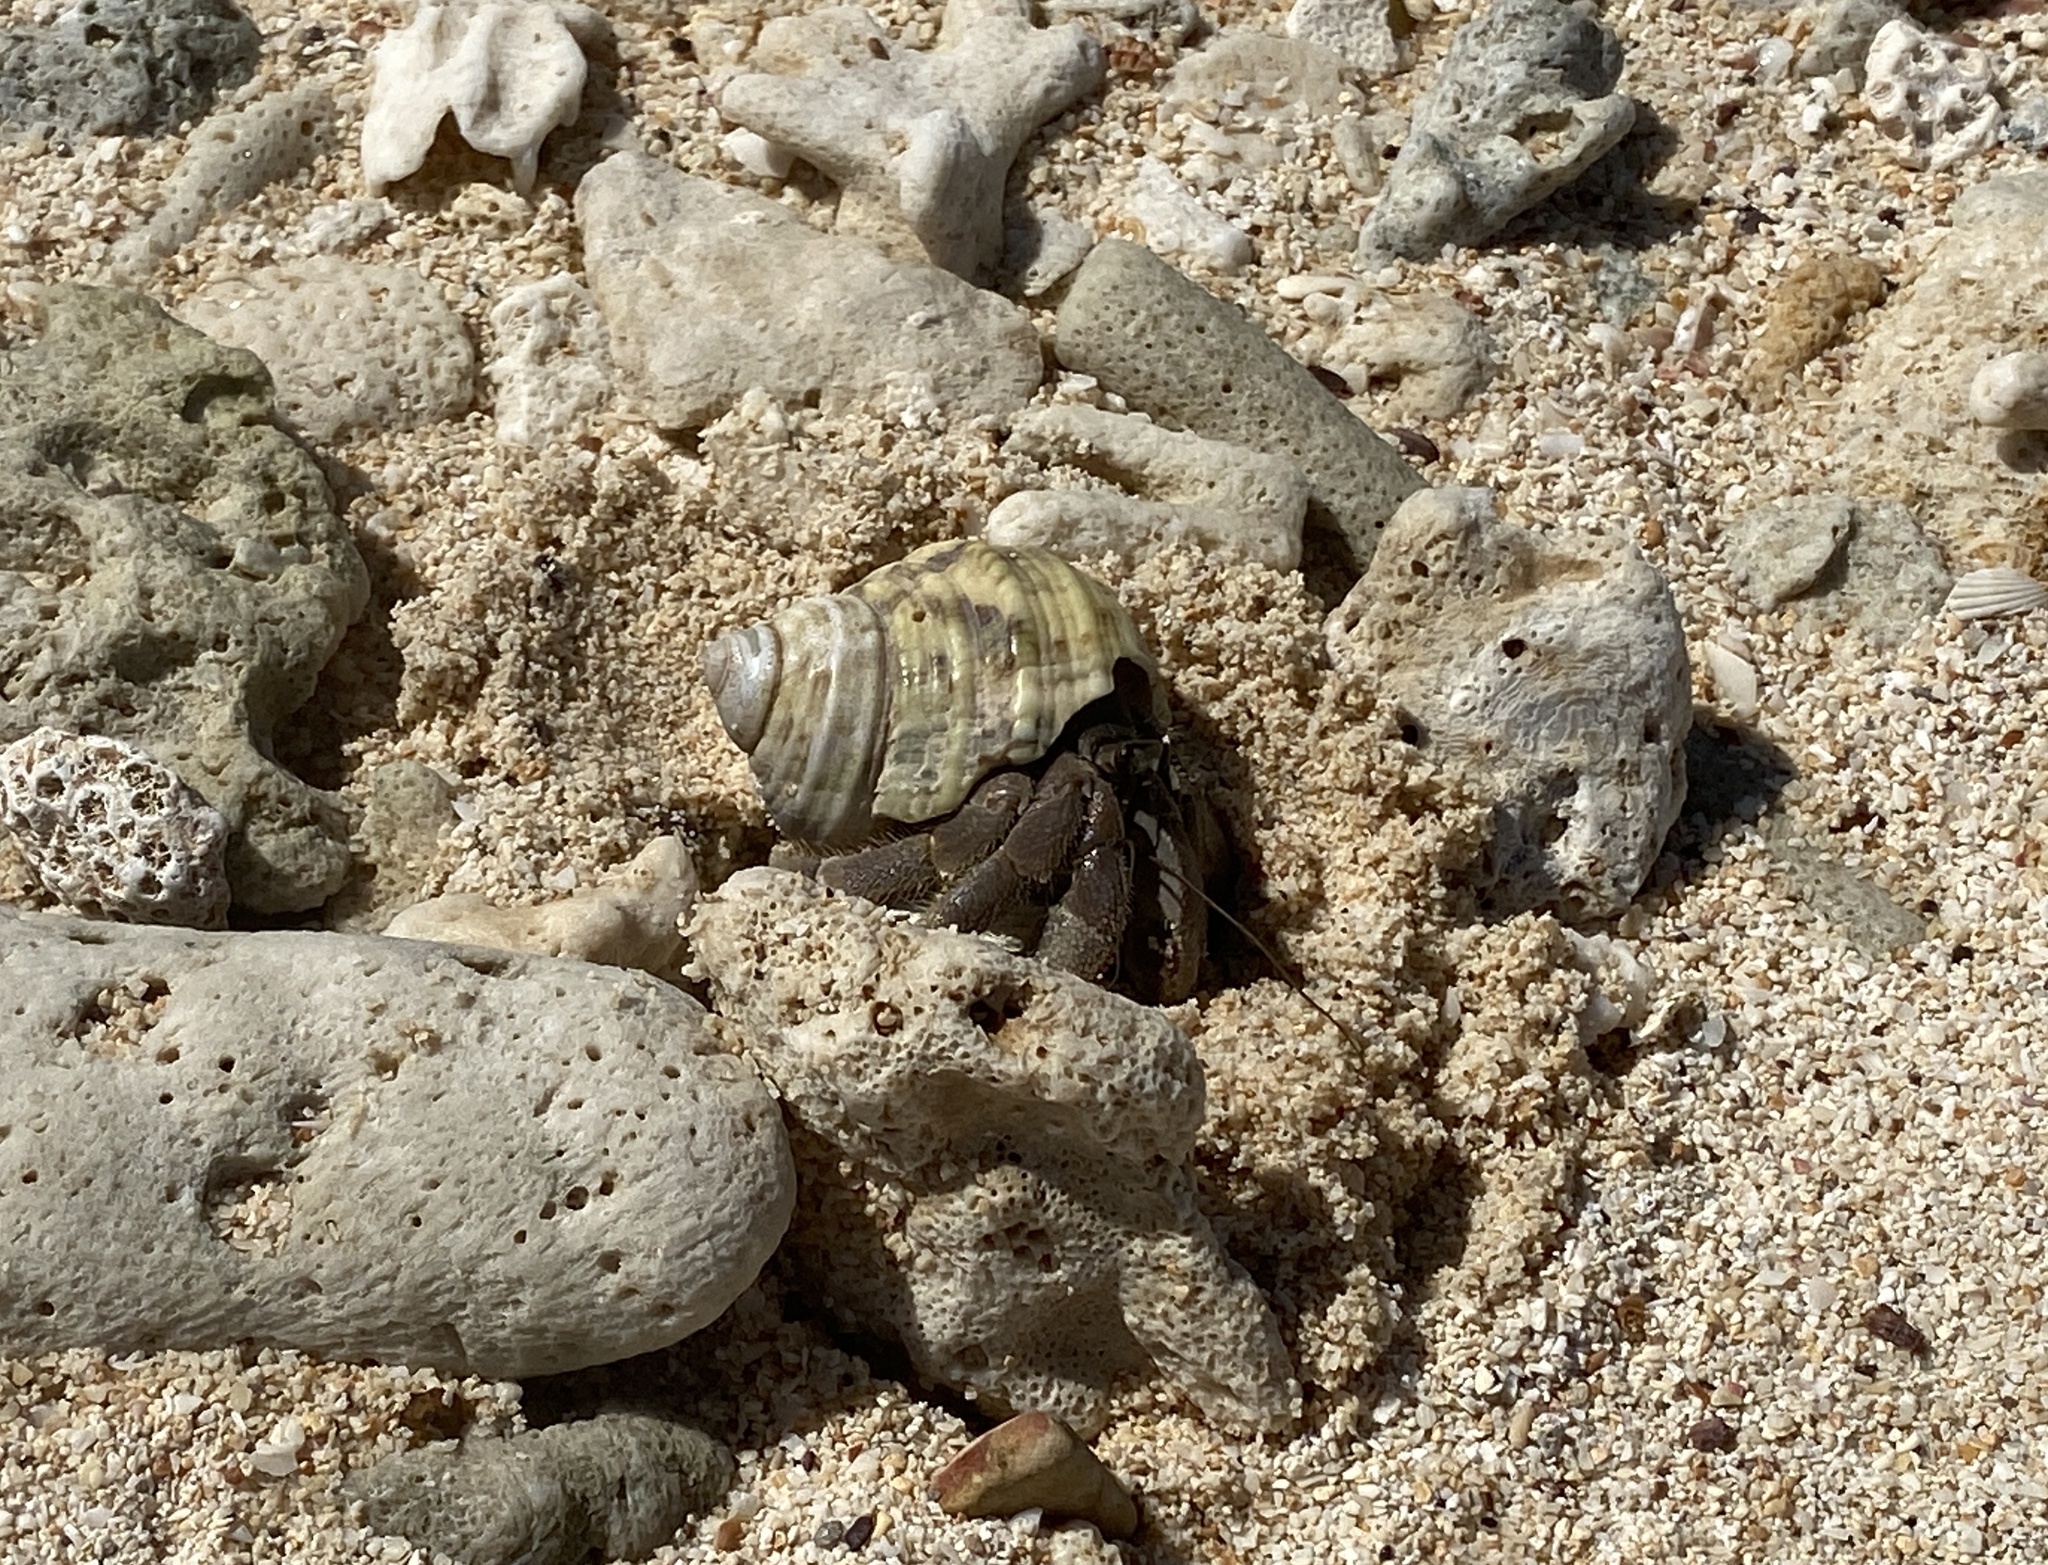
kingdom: Animalia
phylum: Arthropoda
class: Malacostraca
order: Decapoda
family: Coenobitidae
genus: Coenobita
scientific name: Coenobita rugosus
